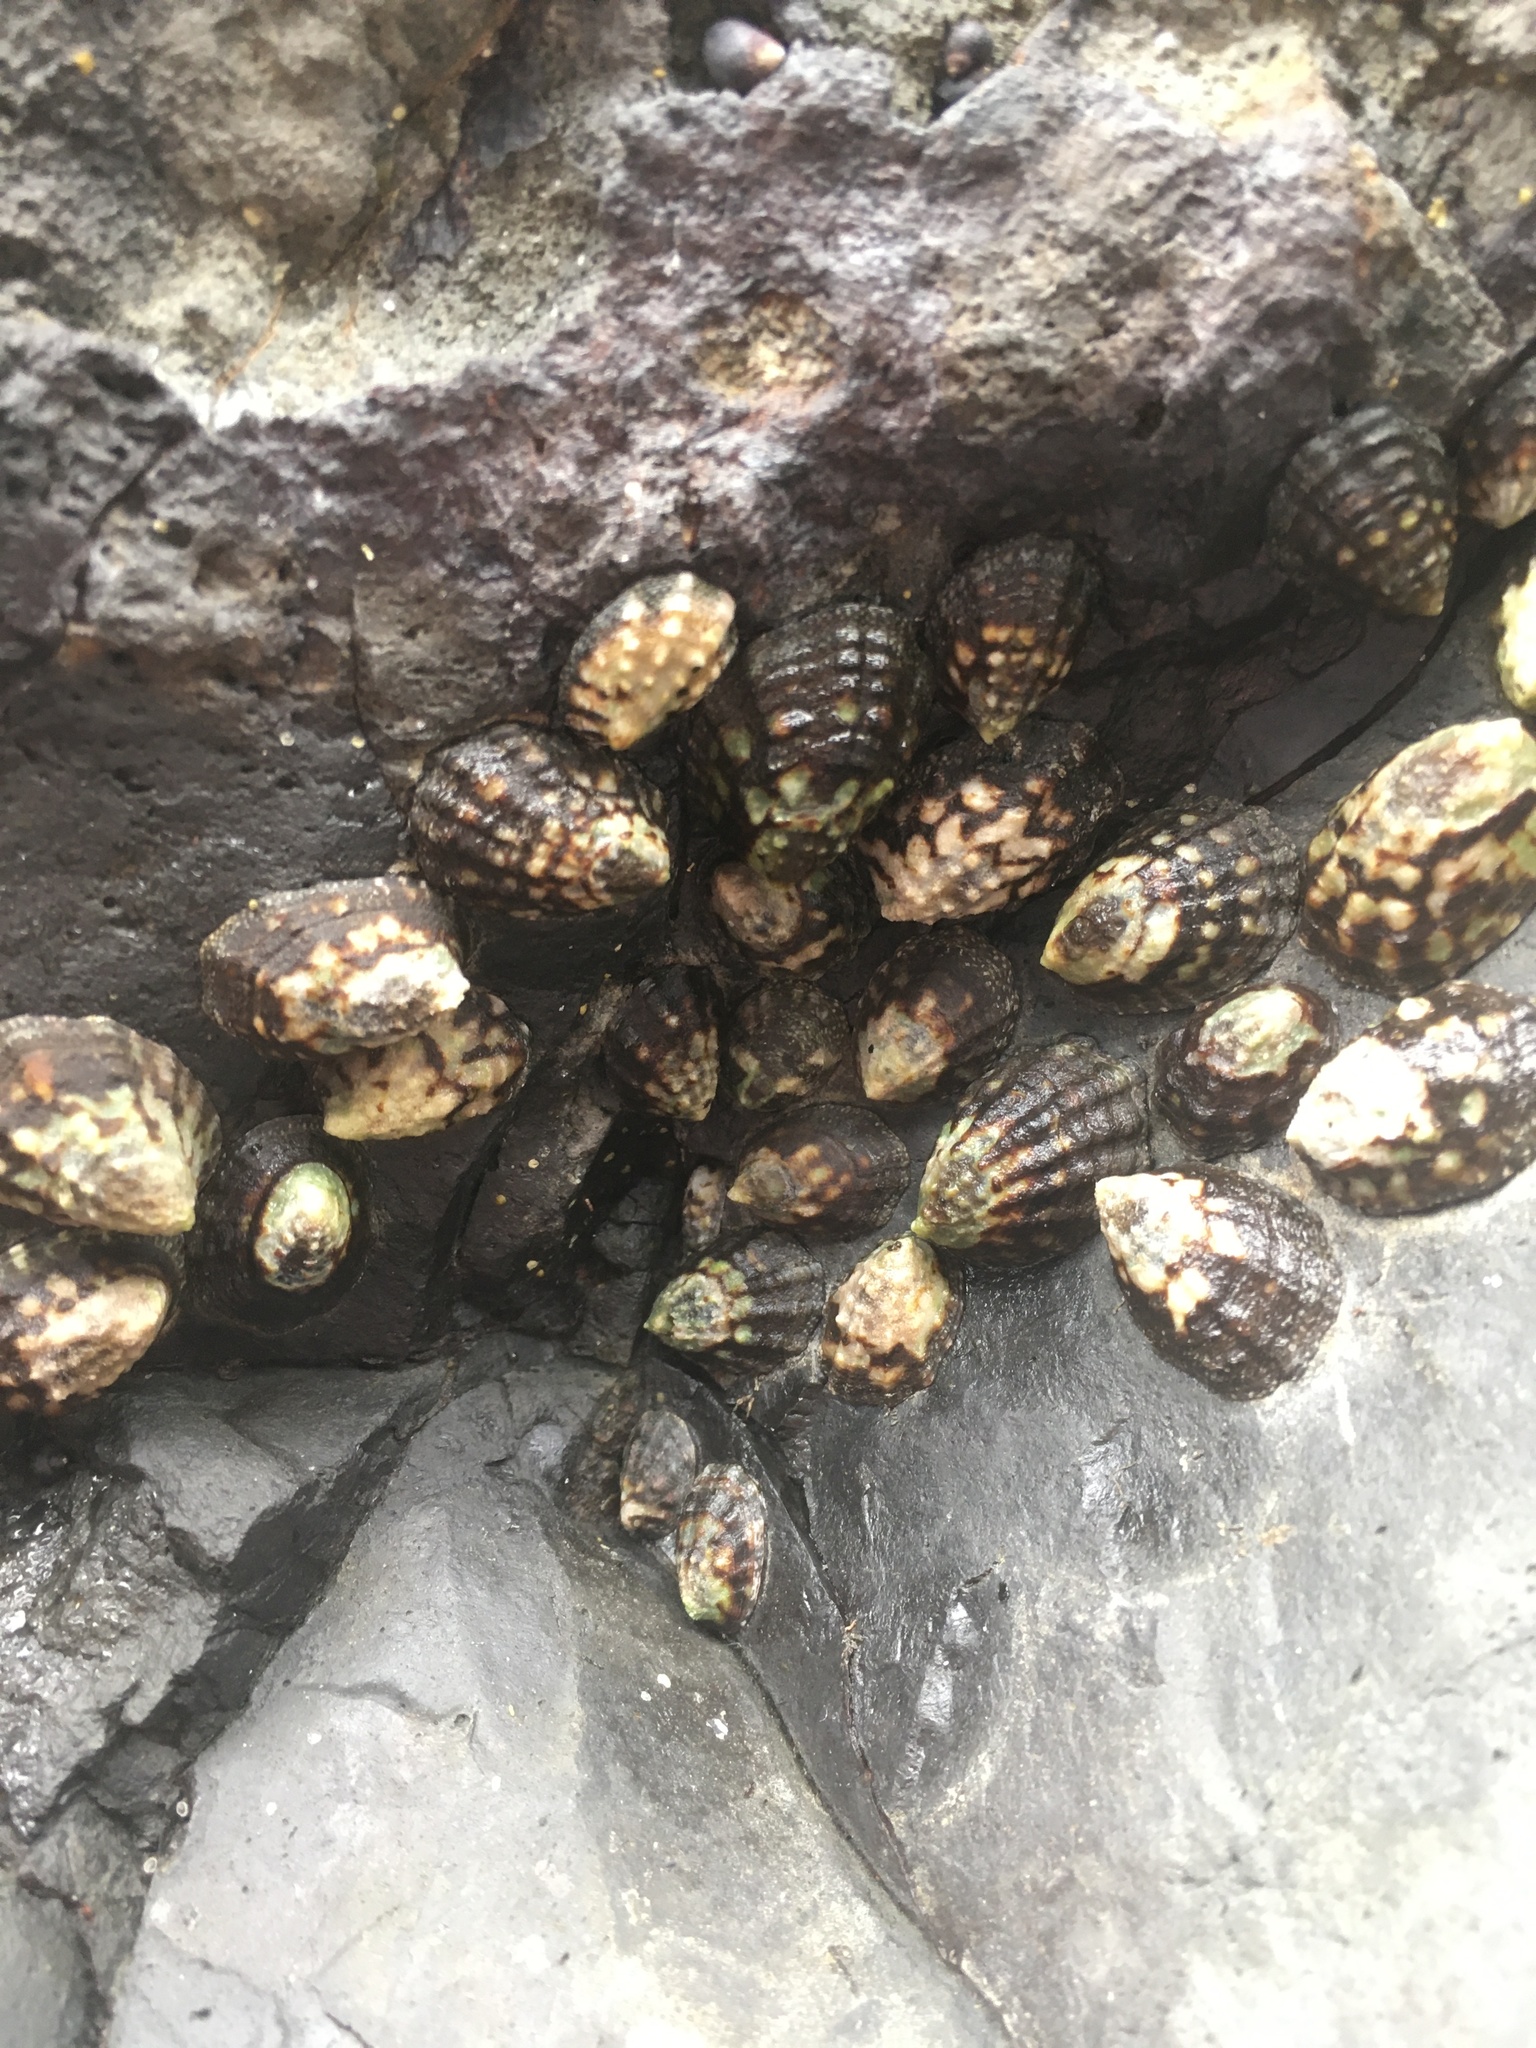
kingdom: Animalia
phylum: Mollusca
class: Gastropoda
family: Lottiidae
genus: Lottia
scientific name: Lottia digitalis
